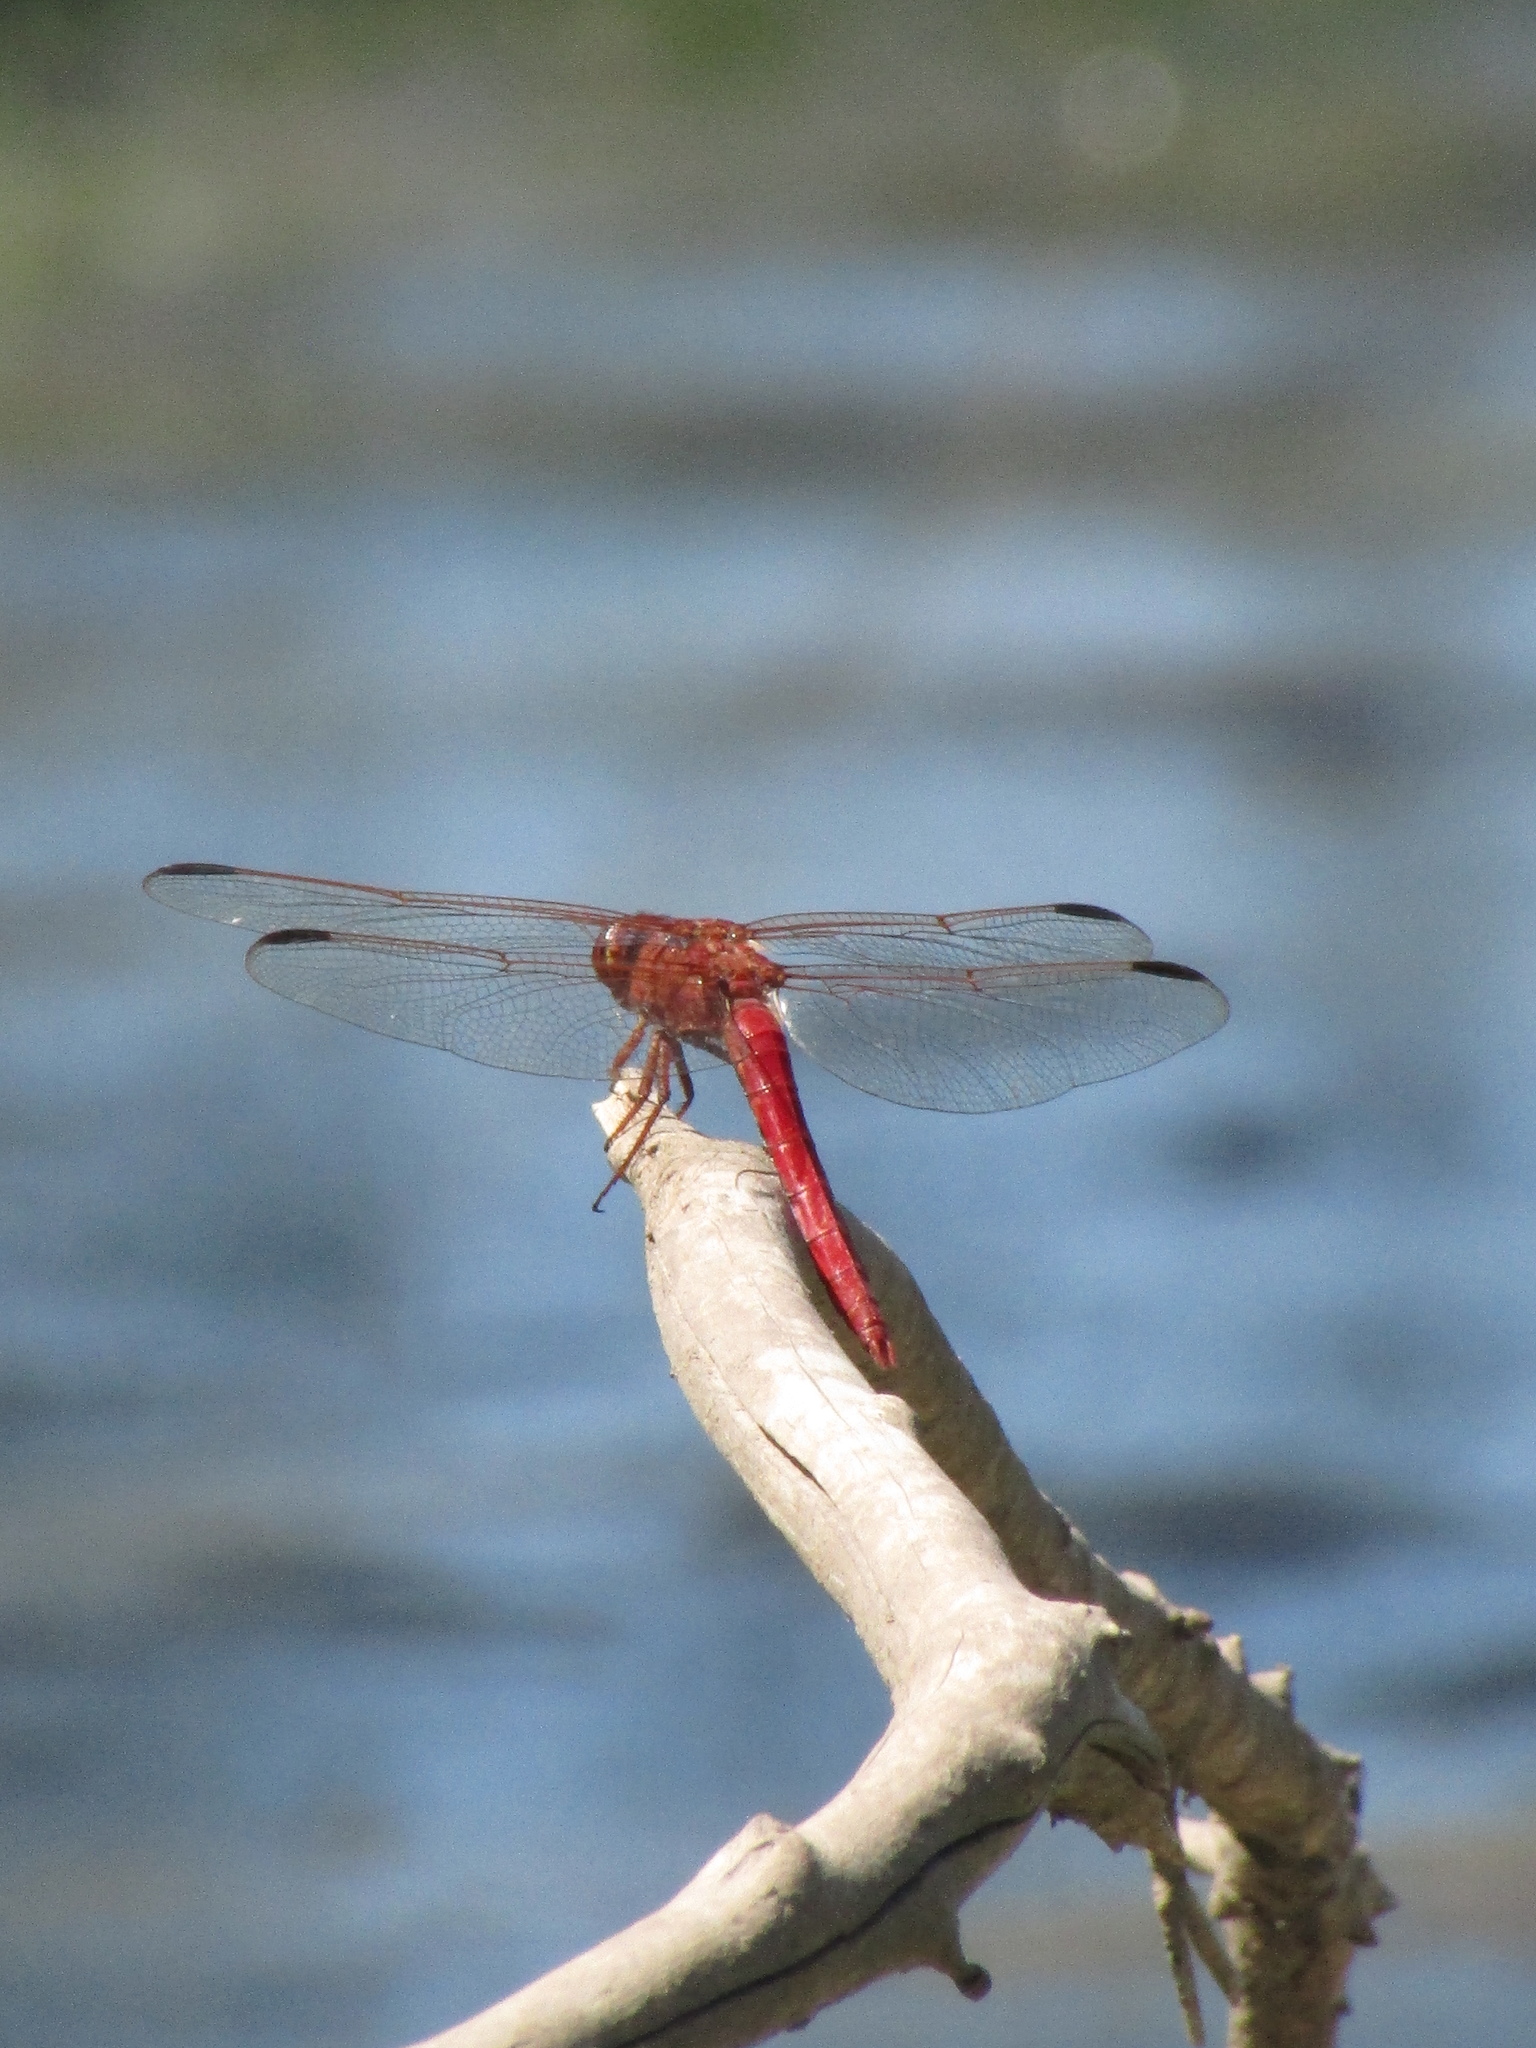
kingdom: Animalia
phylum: Arthropoda
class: Insecta
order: Odonata
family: Libellulidae
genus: Orthemis
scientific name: Orthemis nodiplaga
